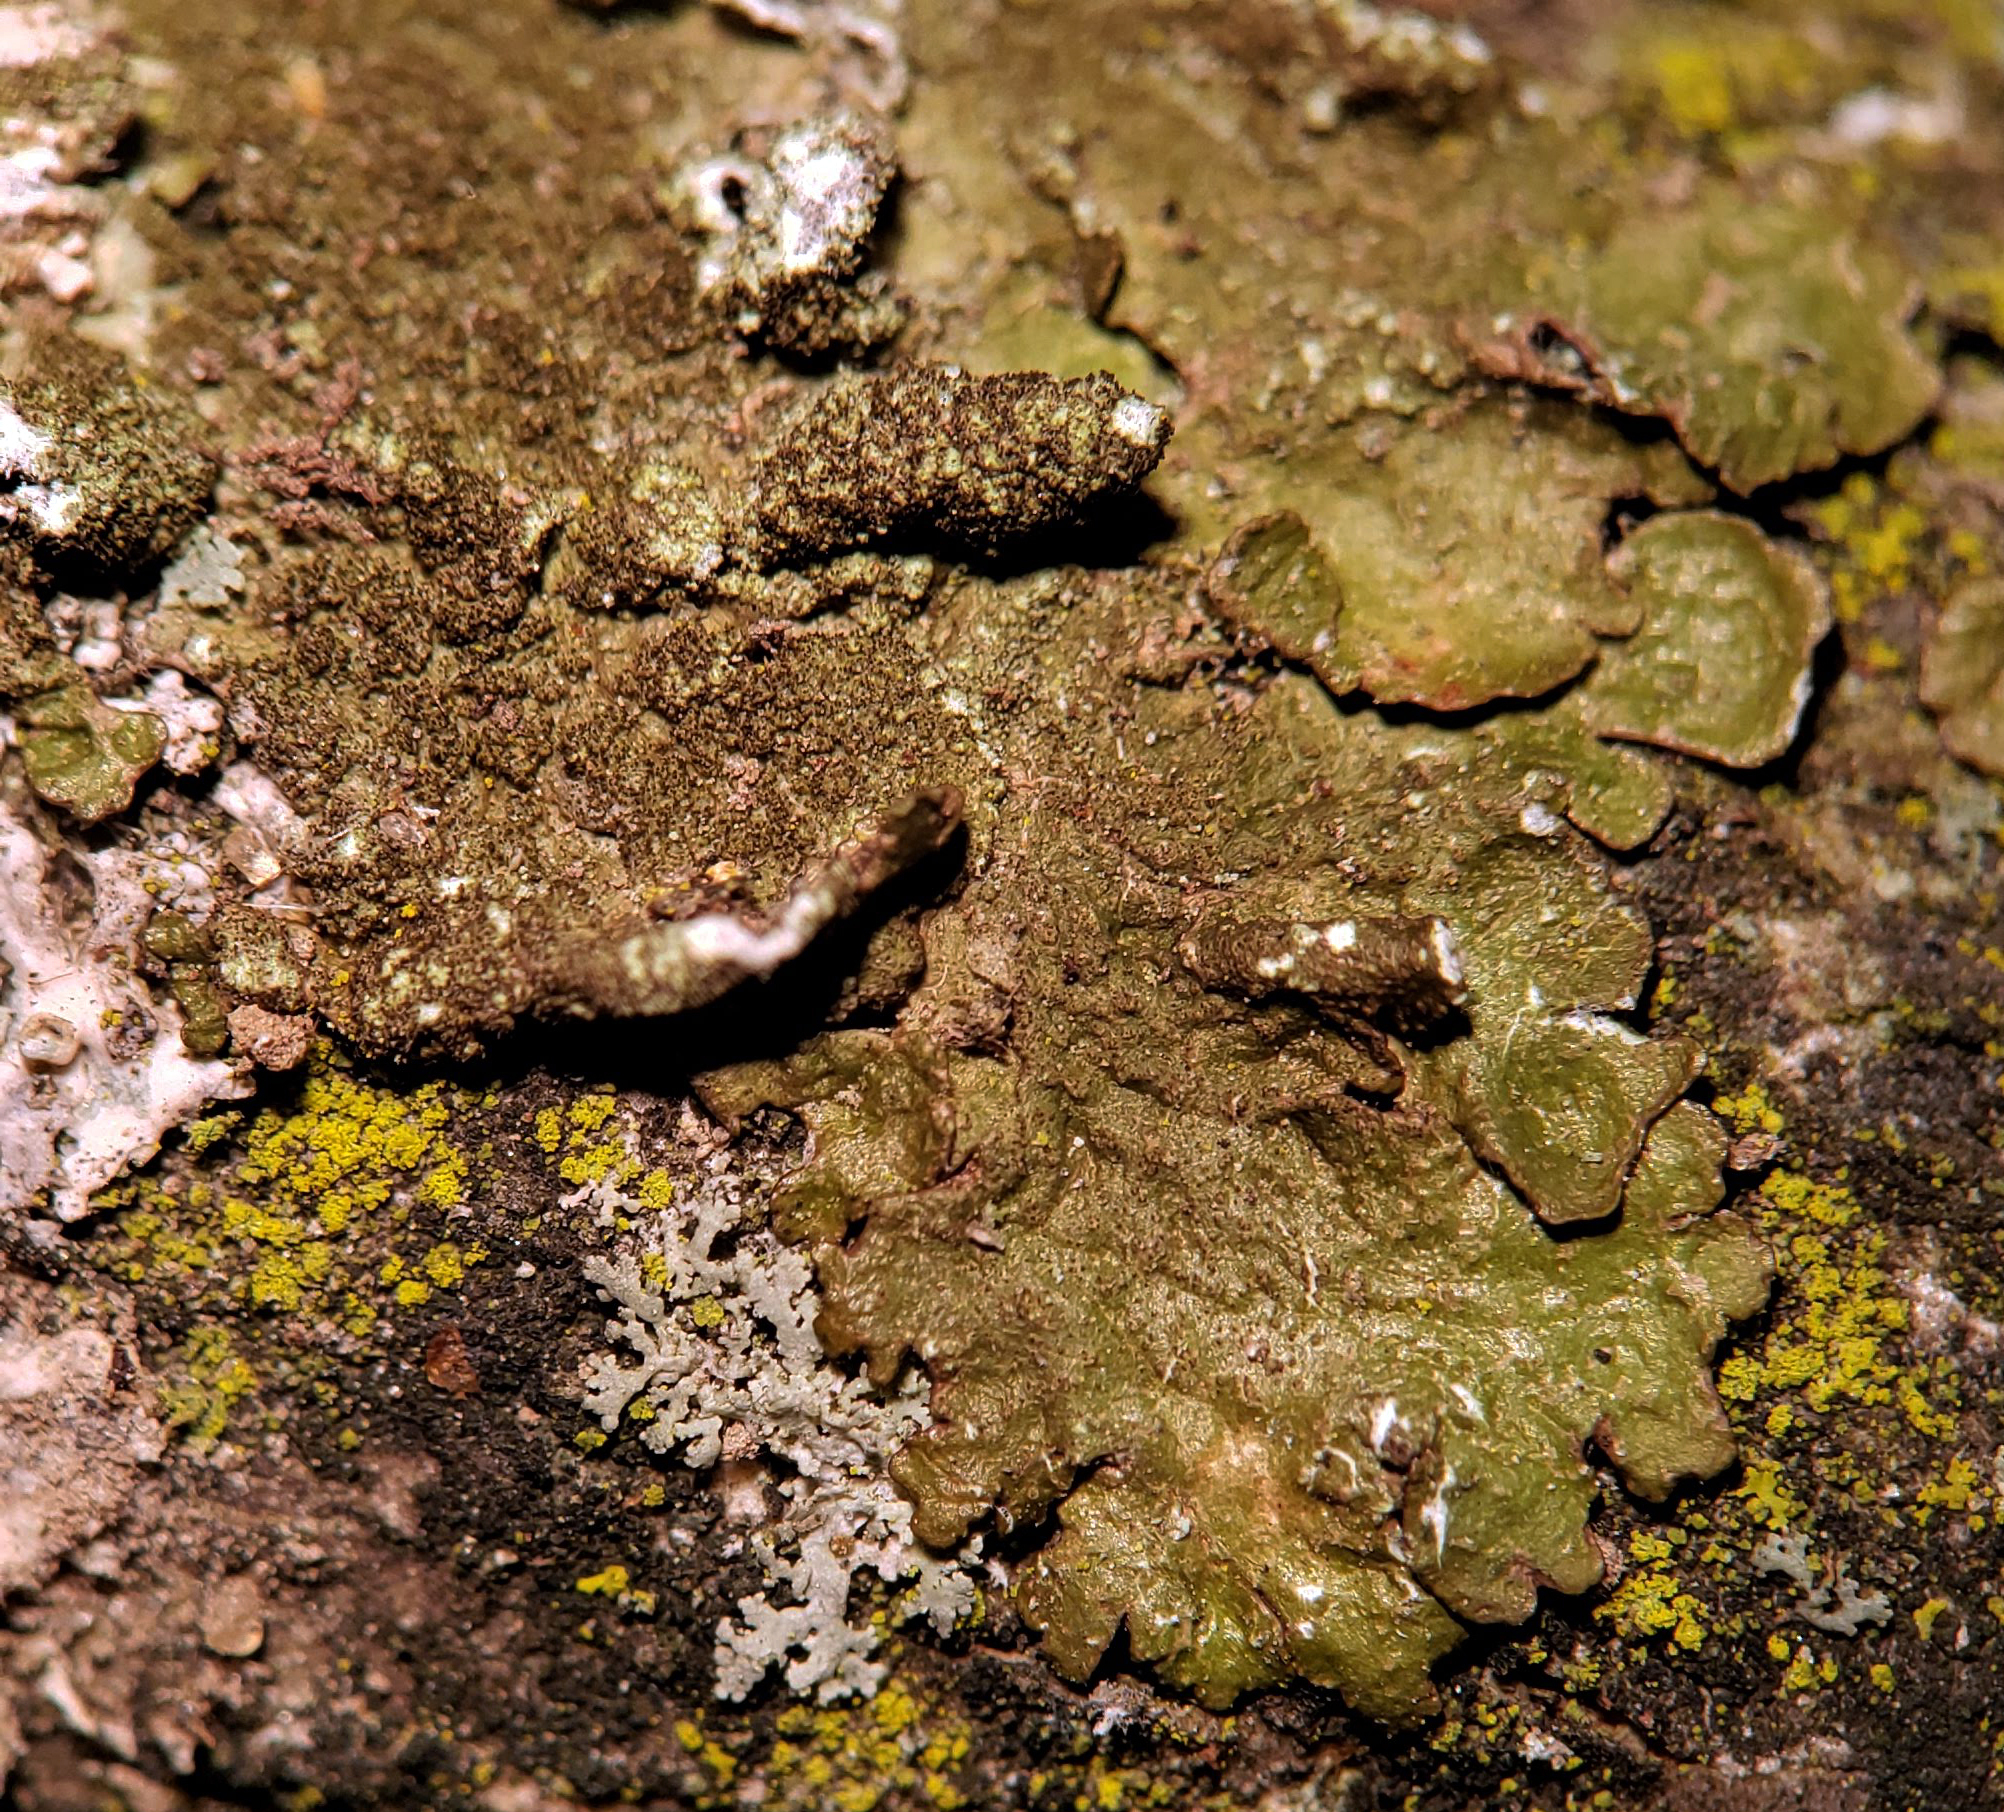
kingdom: Fungi
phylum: Ascomycota
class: Lecanoromycetes
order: Lecanorales
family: Parmeliaceae
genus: Melanelixia
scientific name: Melanelixia subaurifera
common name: Abraded camouflage lichen
